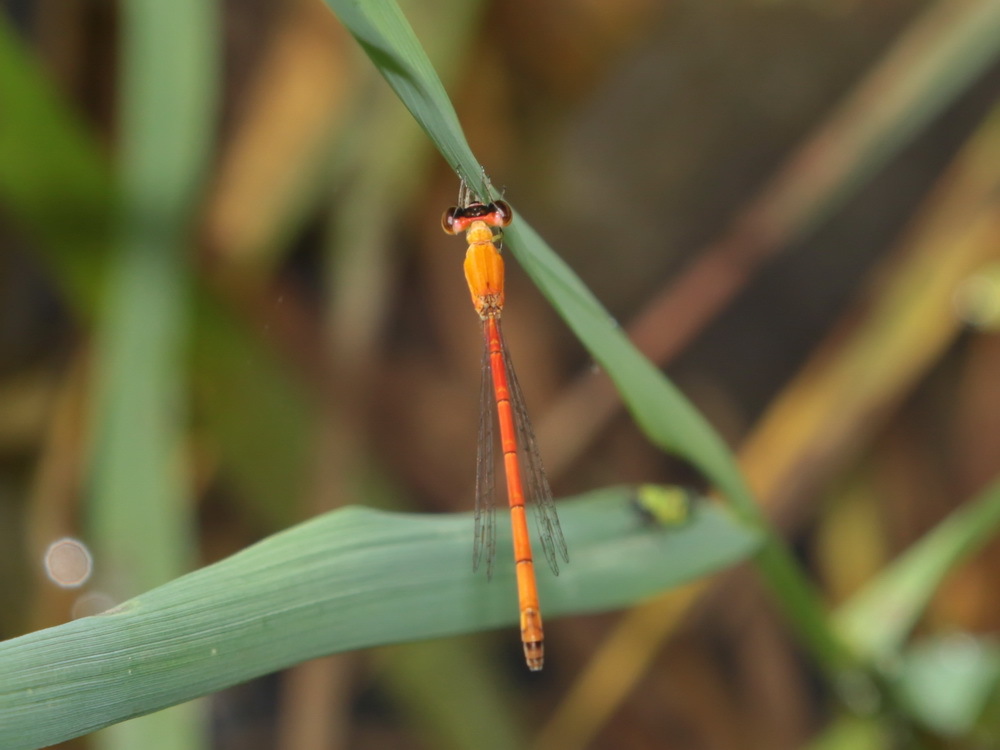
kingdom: Animalia
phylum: Arthropoda
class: Insecta
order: Odonata
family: Coenagrionidae
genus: Agriocnemis
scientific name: Agriocnemis minima
